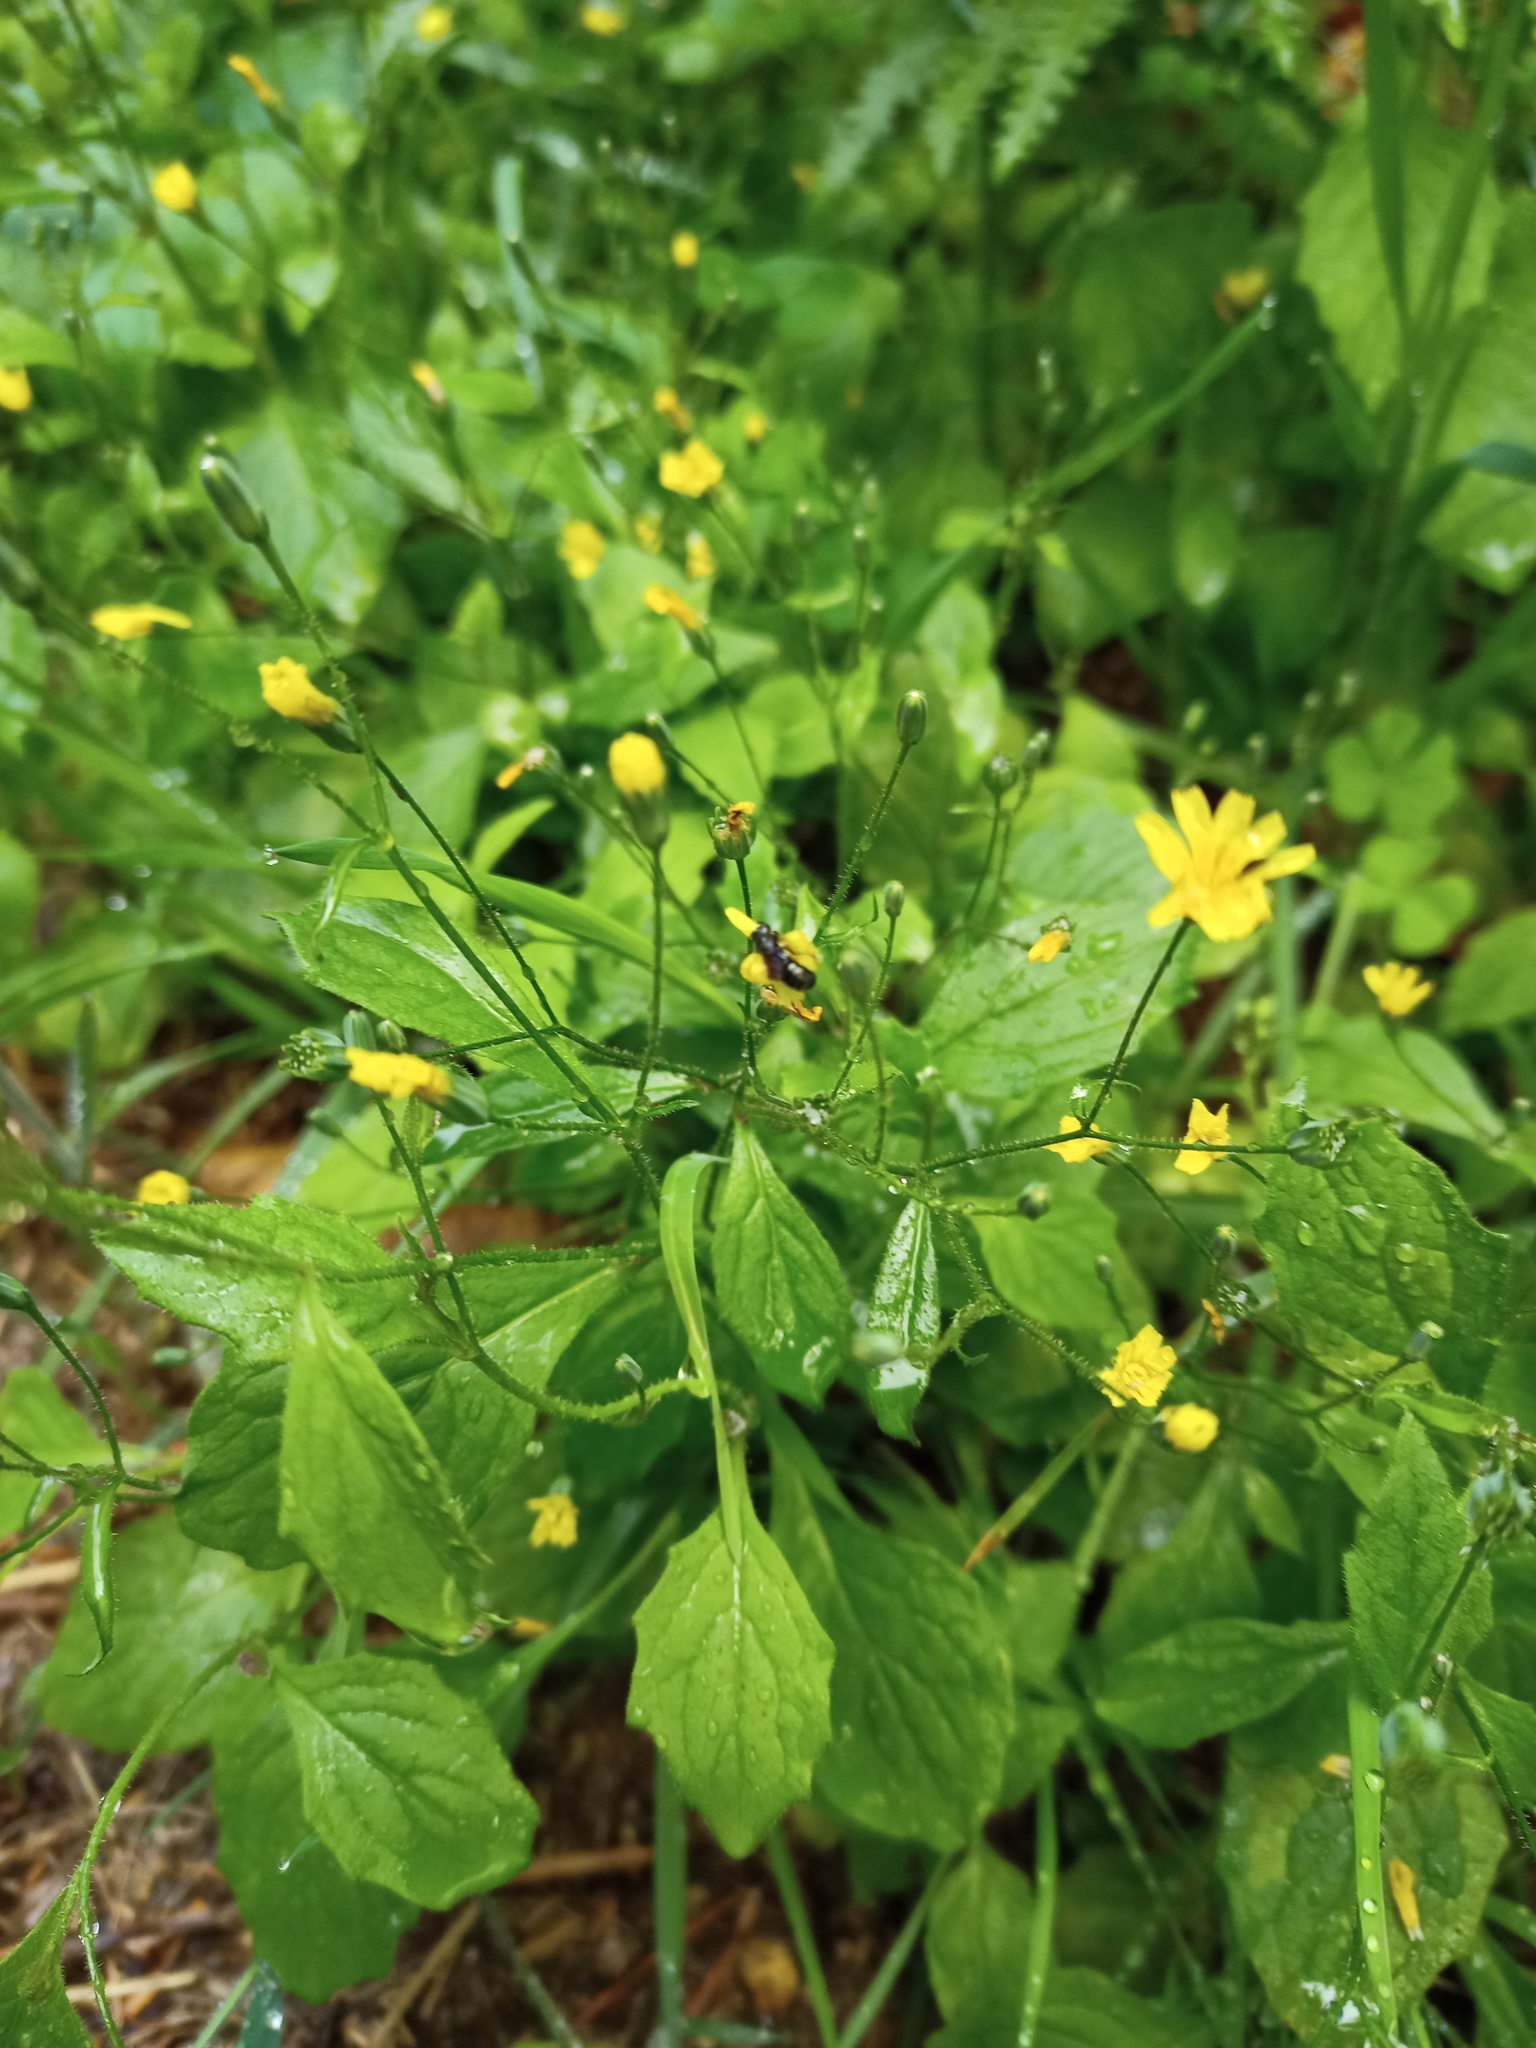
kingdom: Plantae
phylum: Tracheophyta
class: Magnoliopsida
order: Asterales
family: Asteraceae
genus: Lapsana
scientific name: Lapsana communis
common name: Nipplewort
